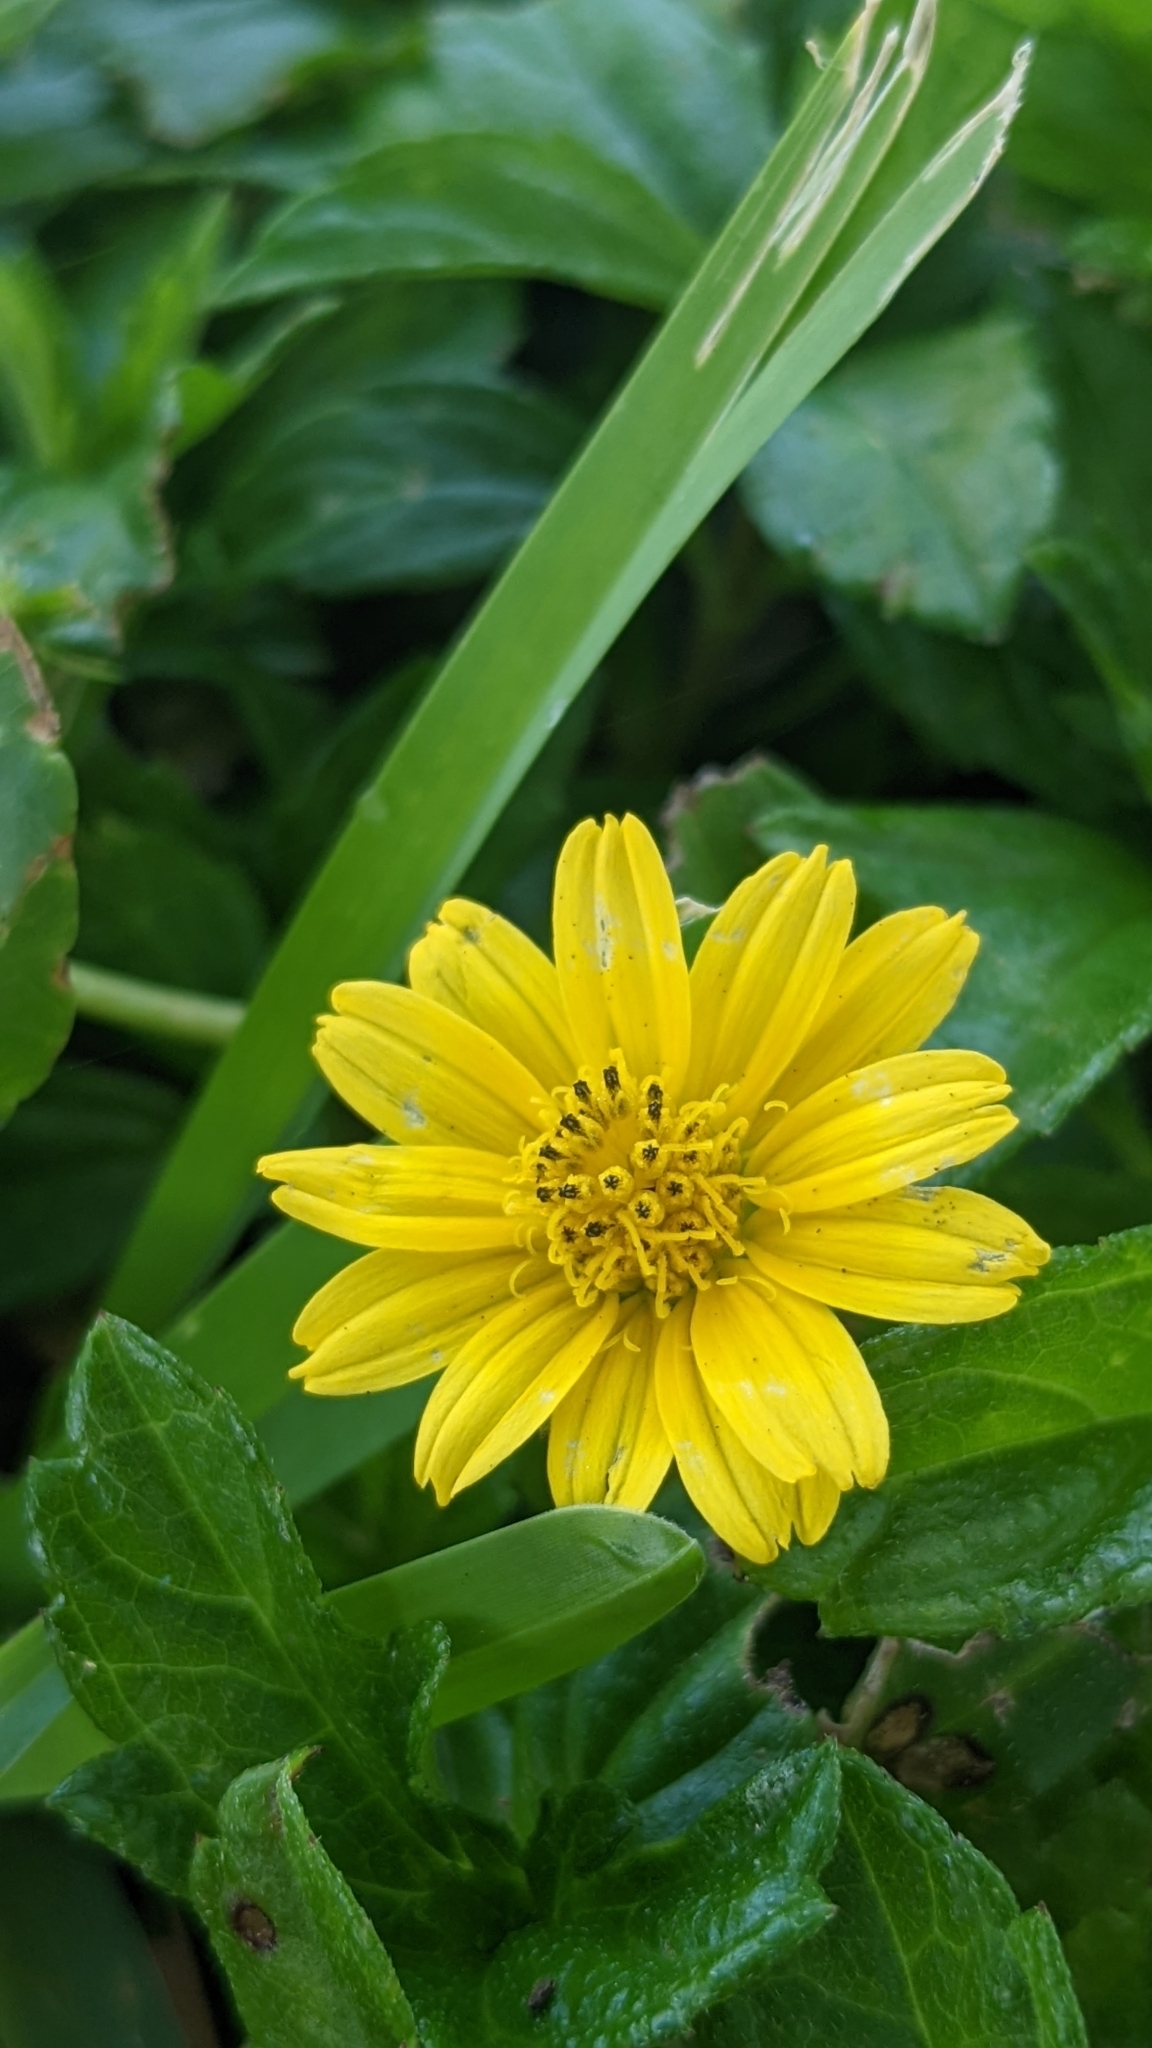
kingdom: Plantae
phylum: Tracheophyta
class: Magnoliopsida
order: Asterales
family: Asteraceae
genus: Sphagneticola
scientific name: Sphagneticola trilobata
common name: Bay biscayne creeping-oxeye
